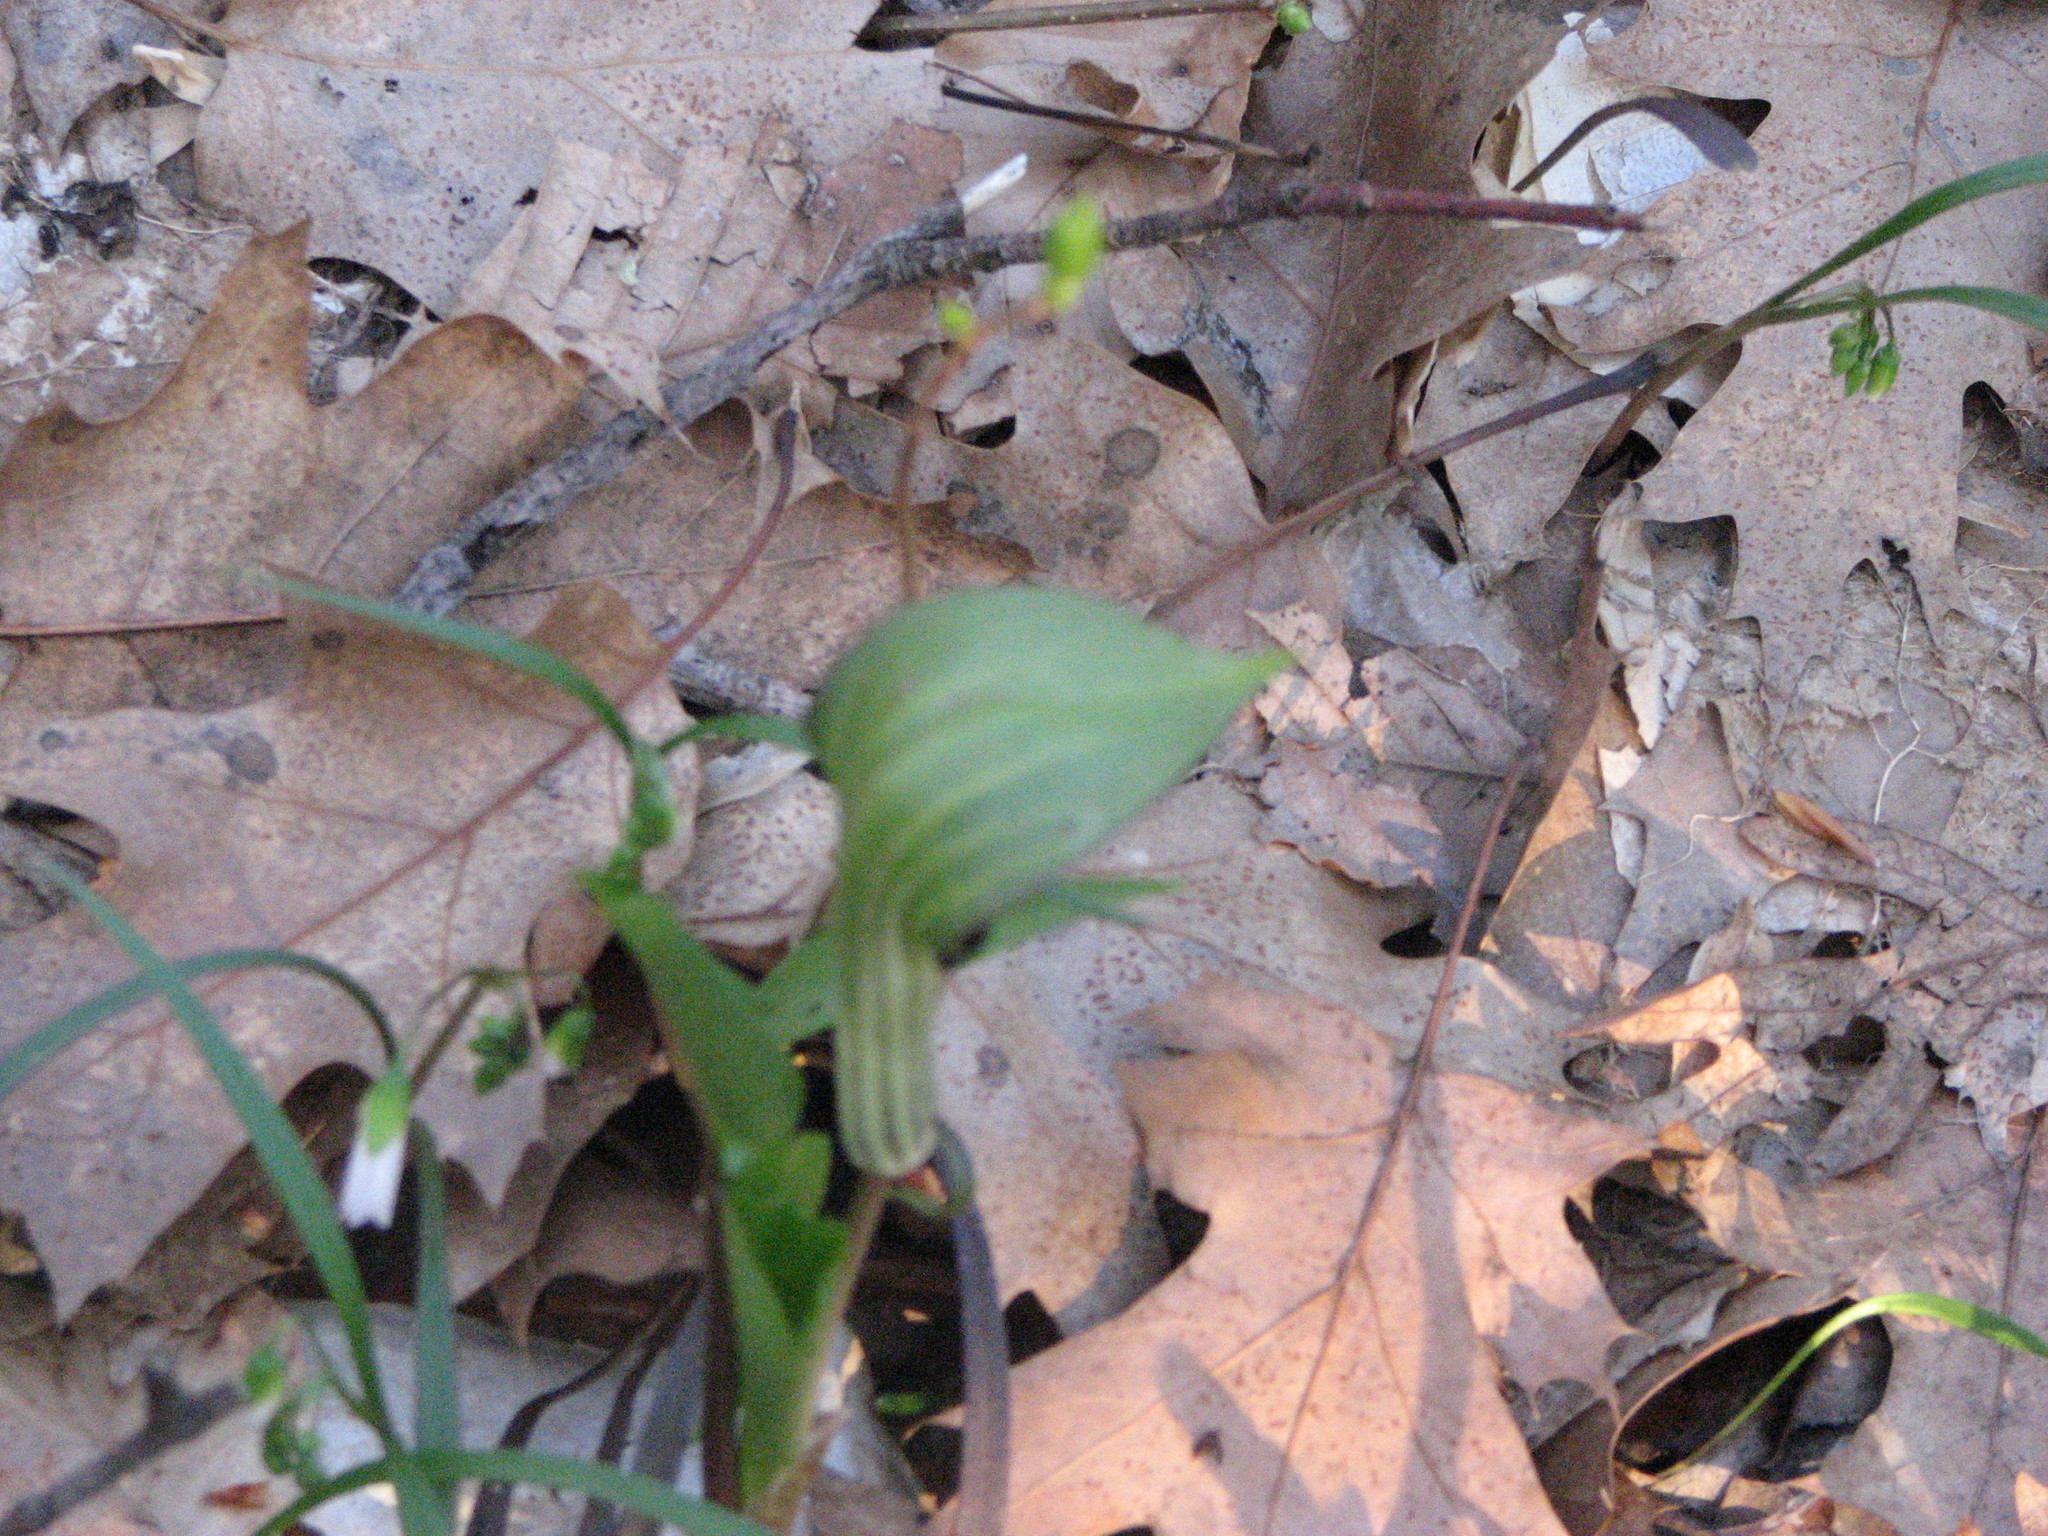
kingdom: Plantae
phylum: Tracheophyta
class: Liliopsida
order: Alismatales
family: Araceae
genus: Arisaema
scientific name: Arisaema triphyllum
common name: Jack-in-the-pulpit
